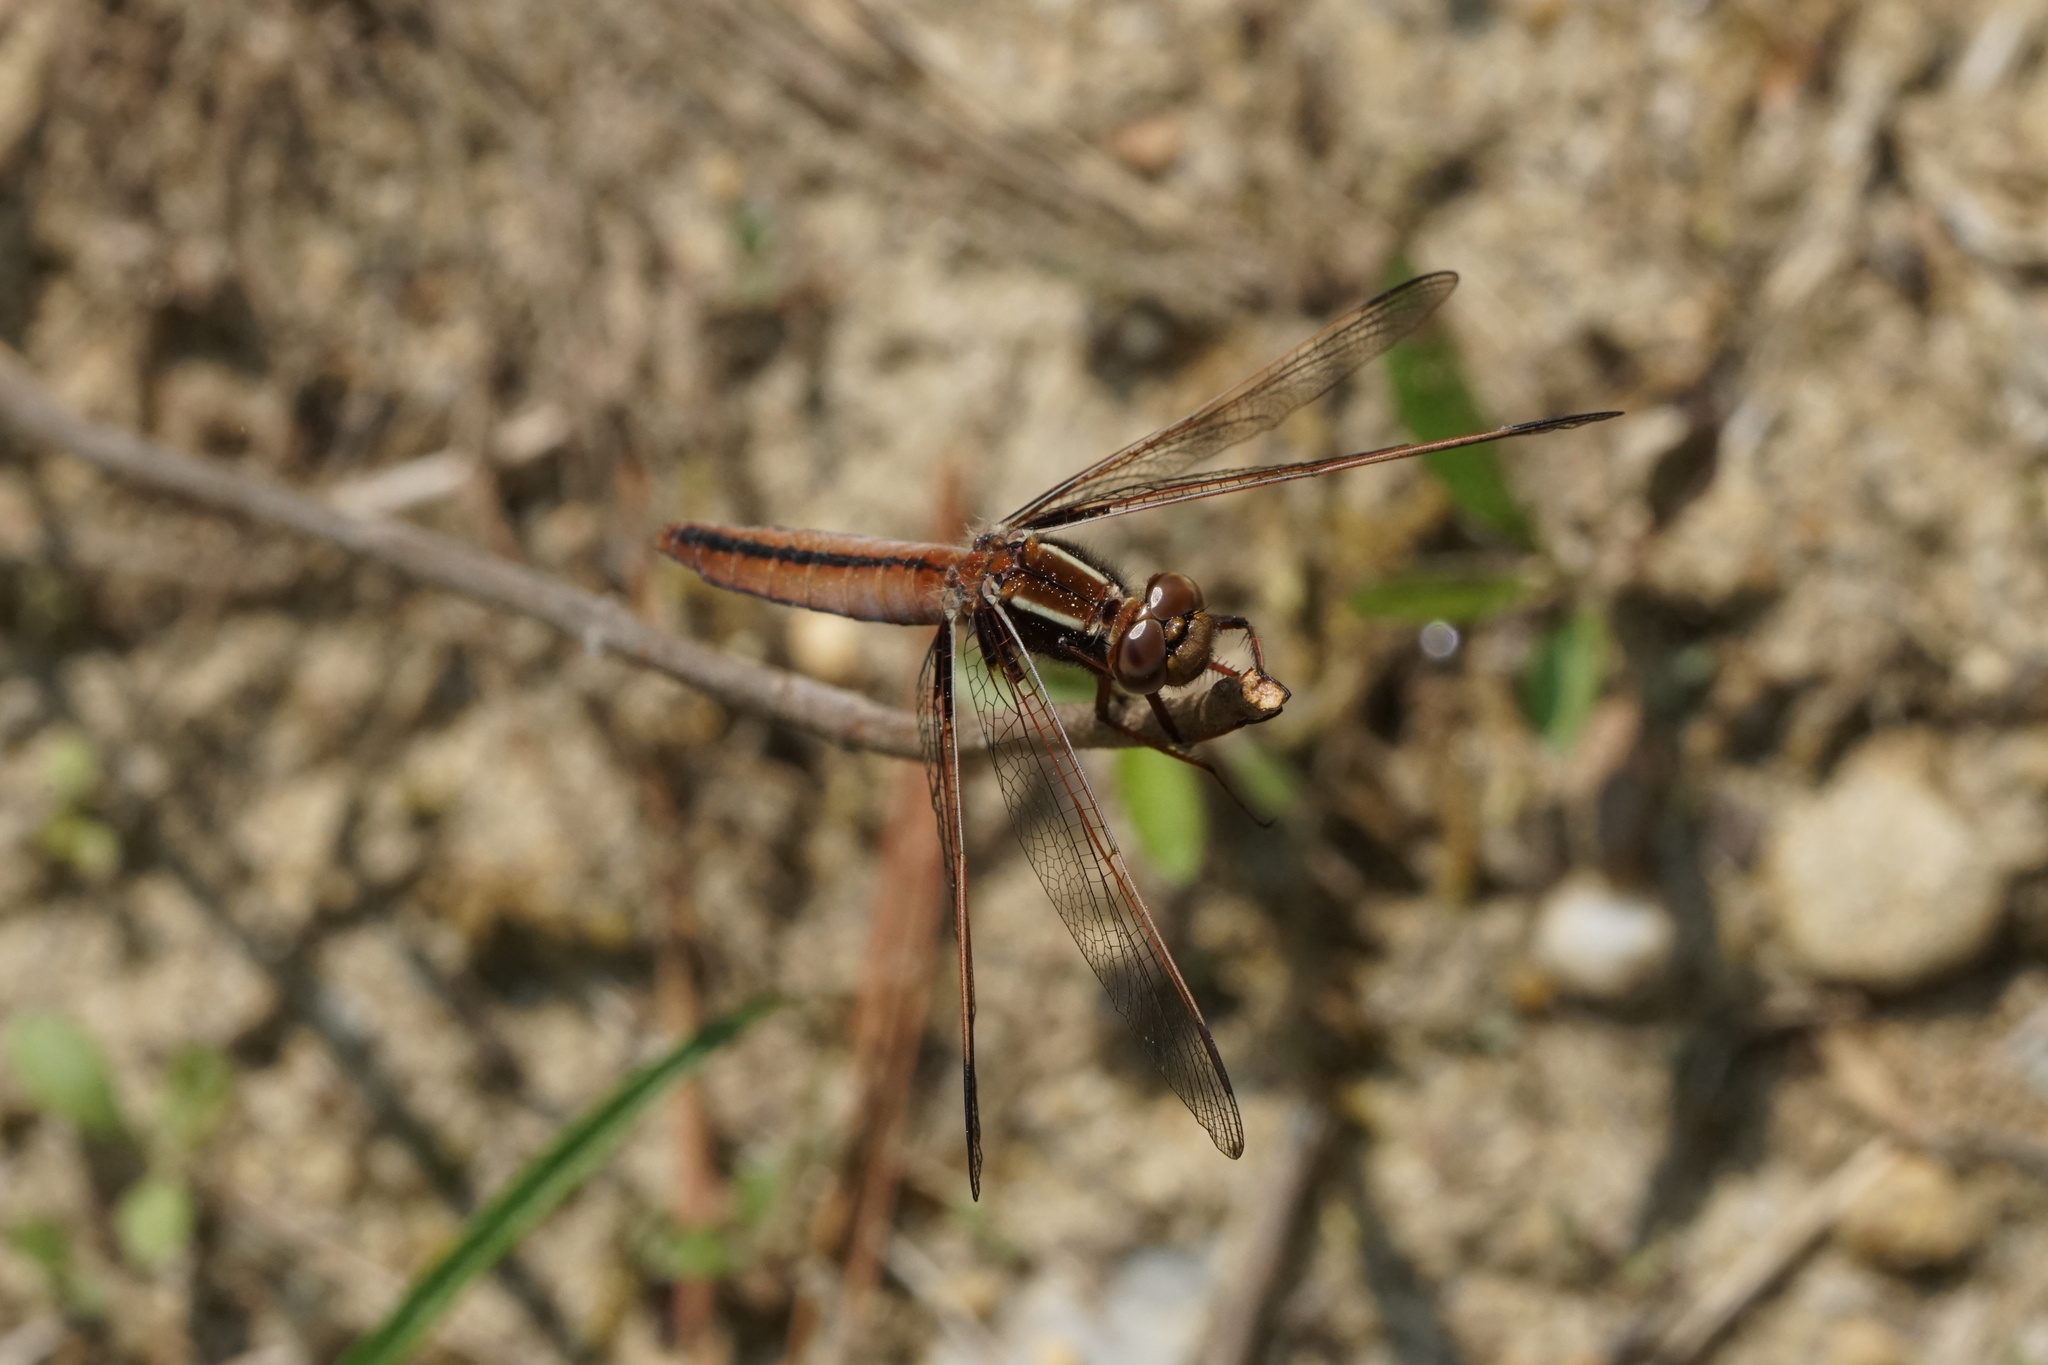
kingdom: Animalia
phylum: Arthropoda
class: Insecta
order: Odonata
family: Libellulidae
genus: Ladona
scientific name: Ladona exusta
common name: Libellule embrasée
